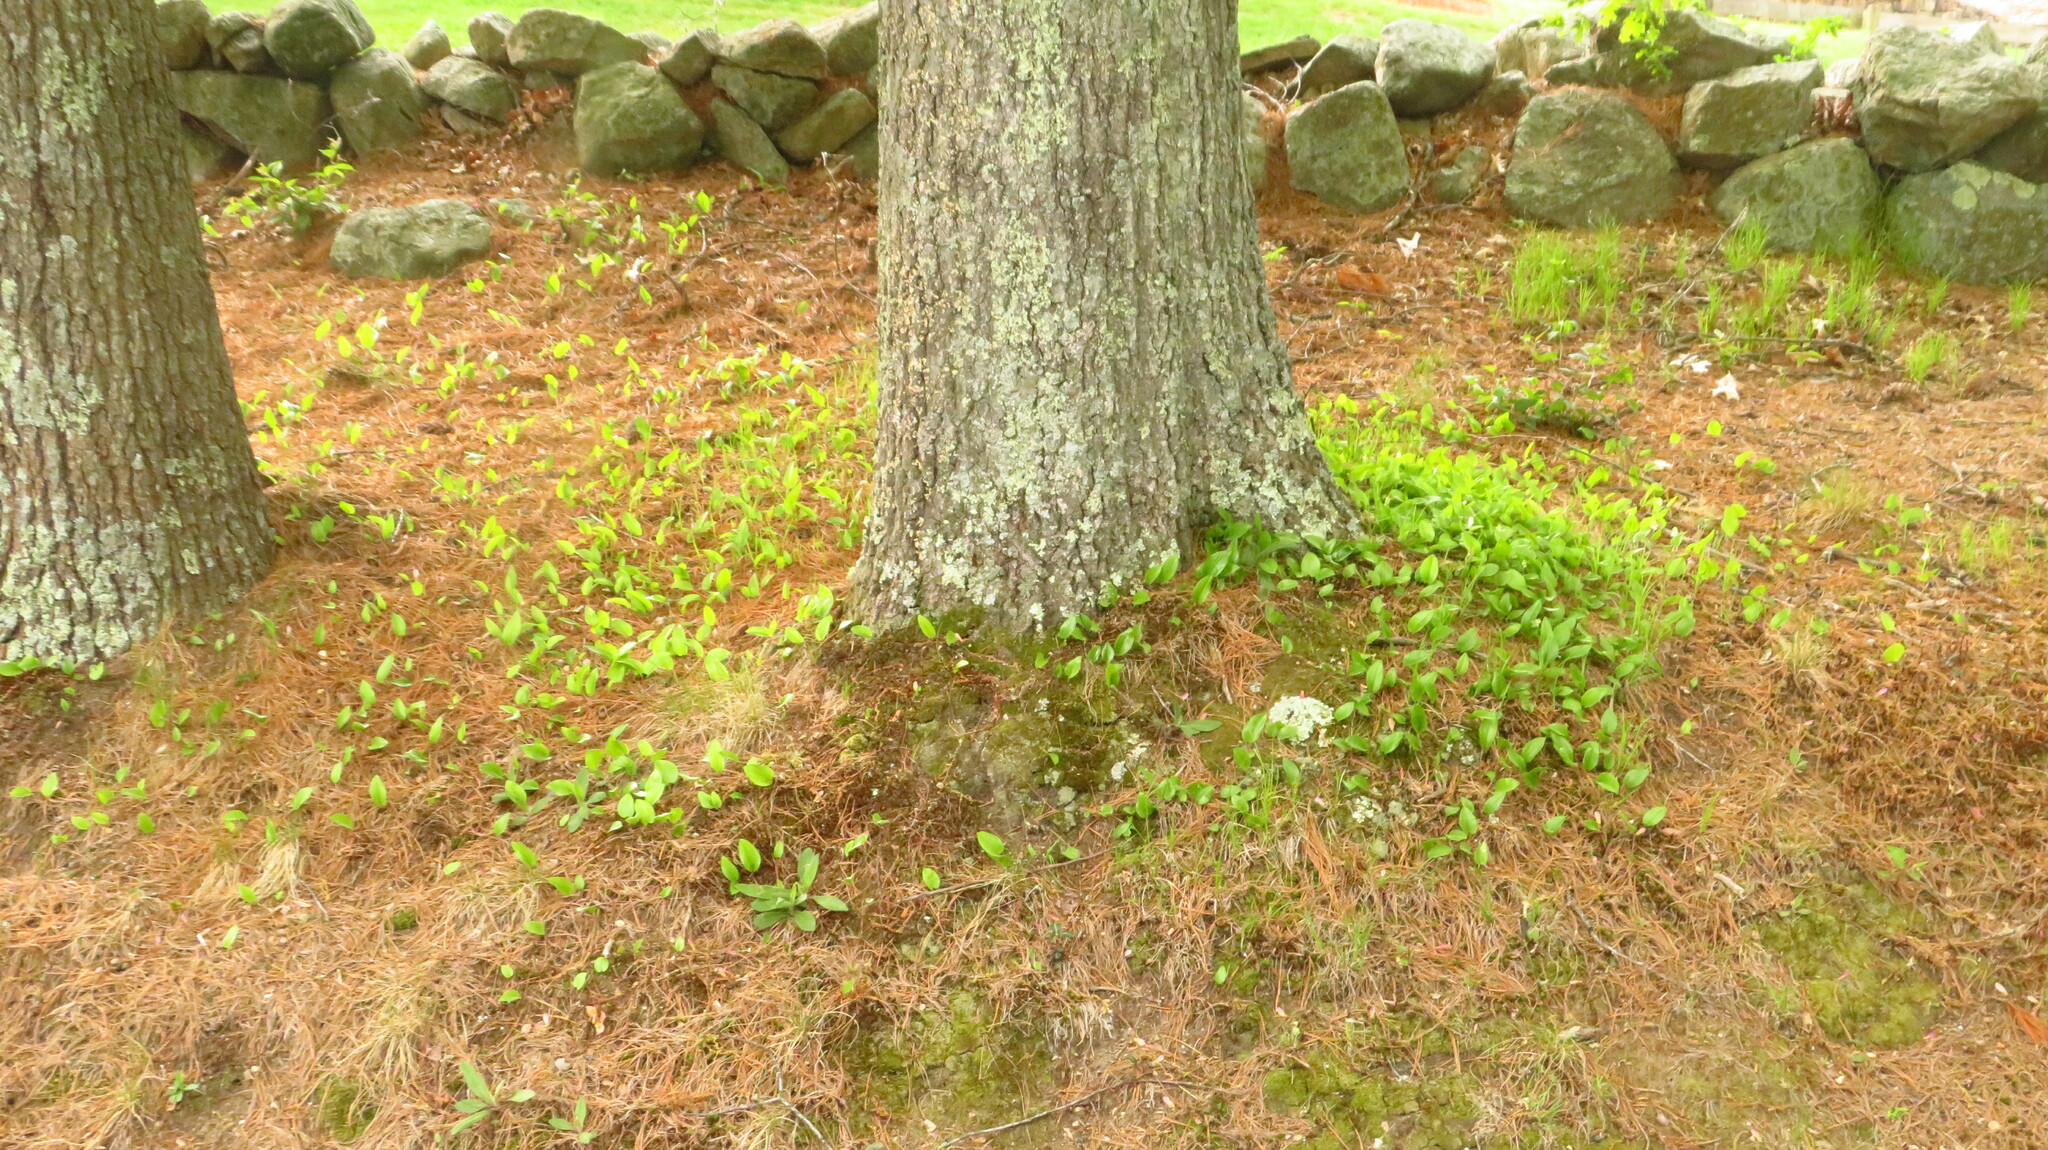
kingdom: Plantae
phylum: Tracheophyta
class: Liliopsida
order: Asparagales
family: Asparagaceae
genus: Maianthemum
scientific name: Maianthemum canadense
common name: False lily-of-the-valley
